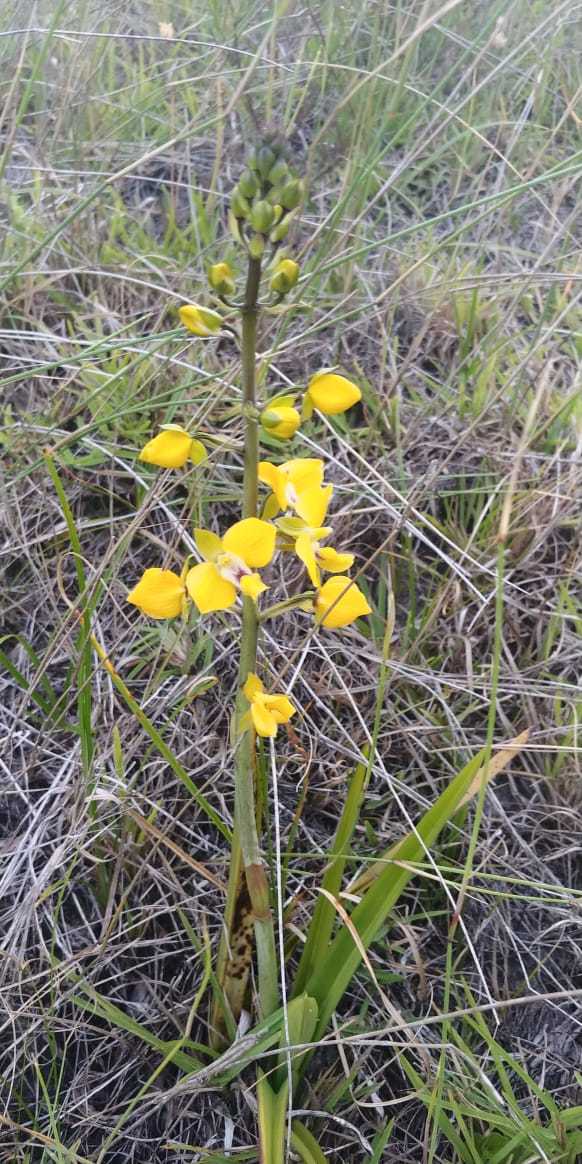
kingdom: Plantae
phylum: Tracheophyta
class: Liliopsida
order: Asparagales
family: Orchidaceae
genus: Eulophia
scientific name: Eulophia speciosa
